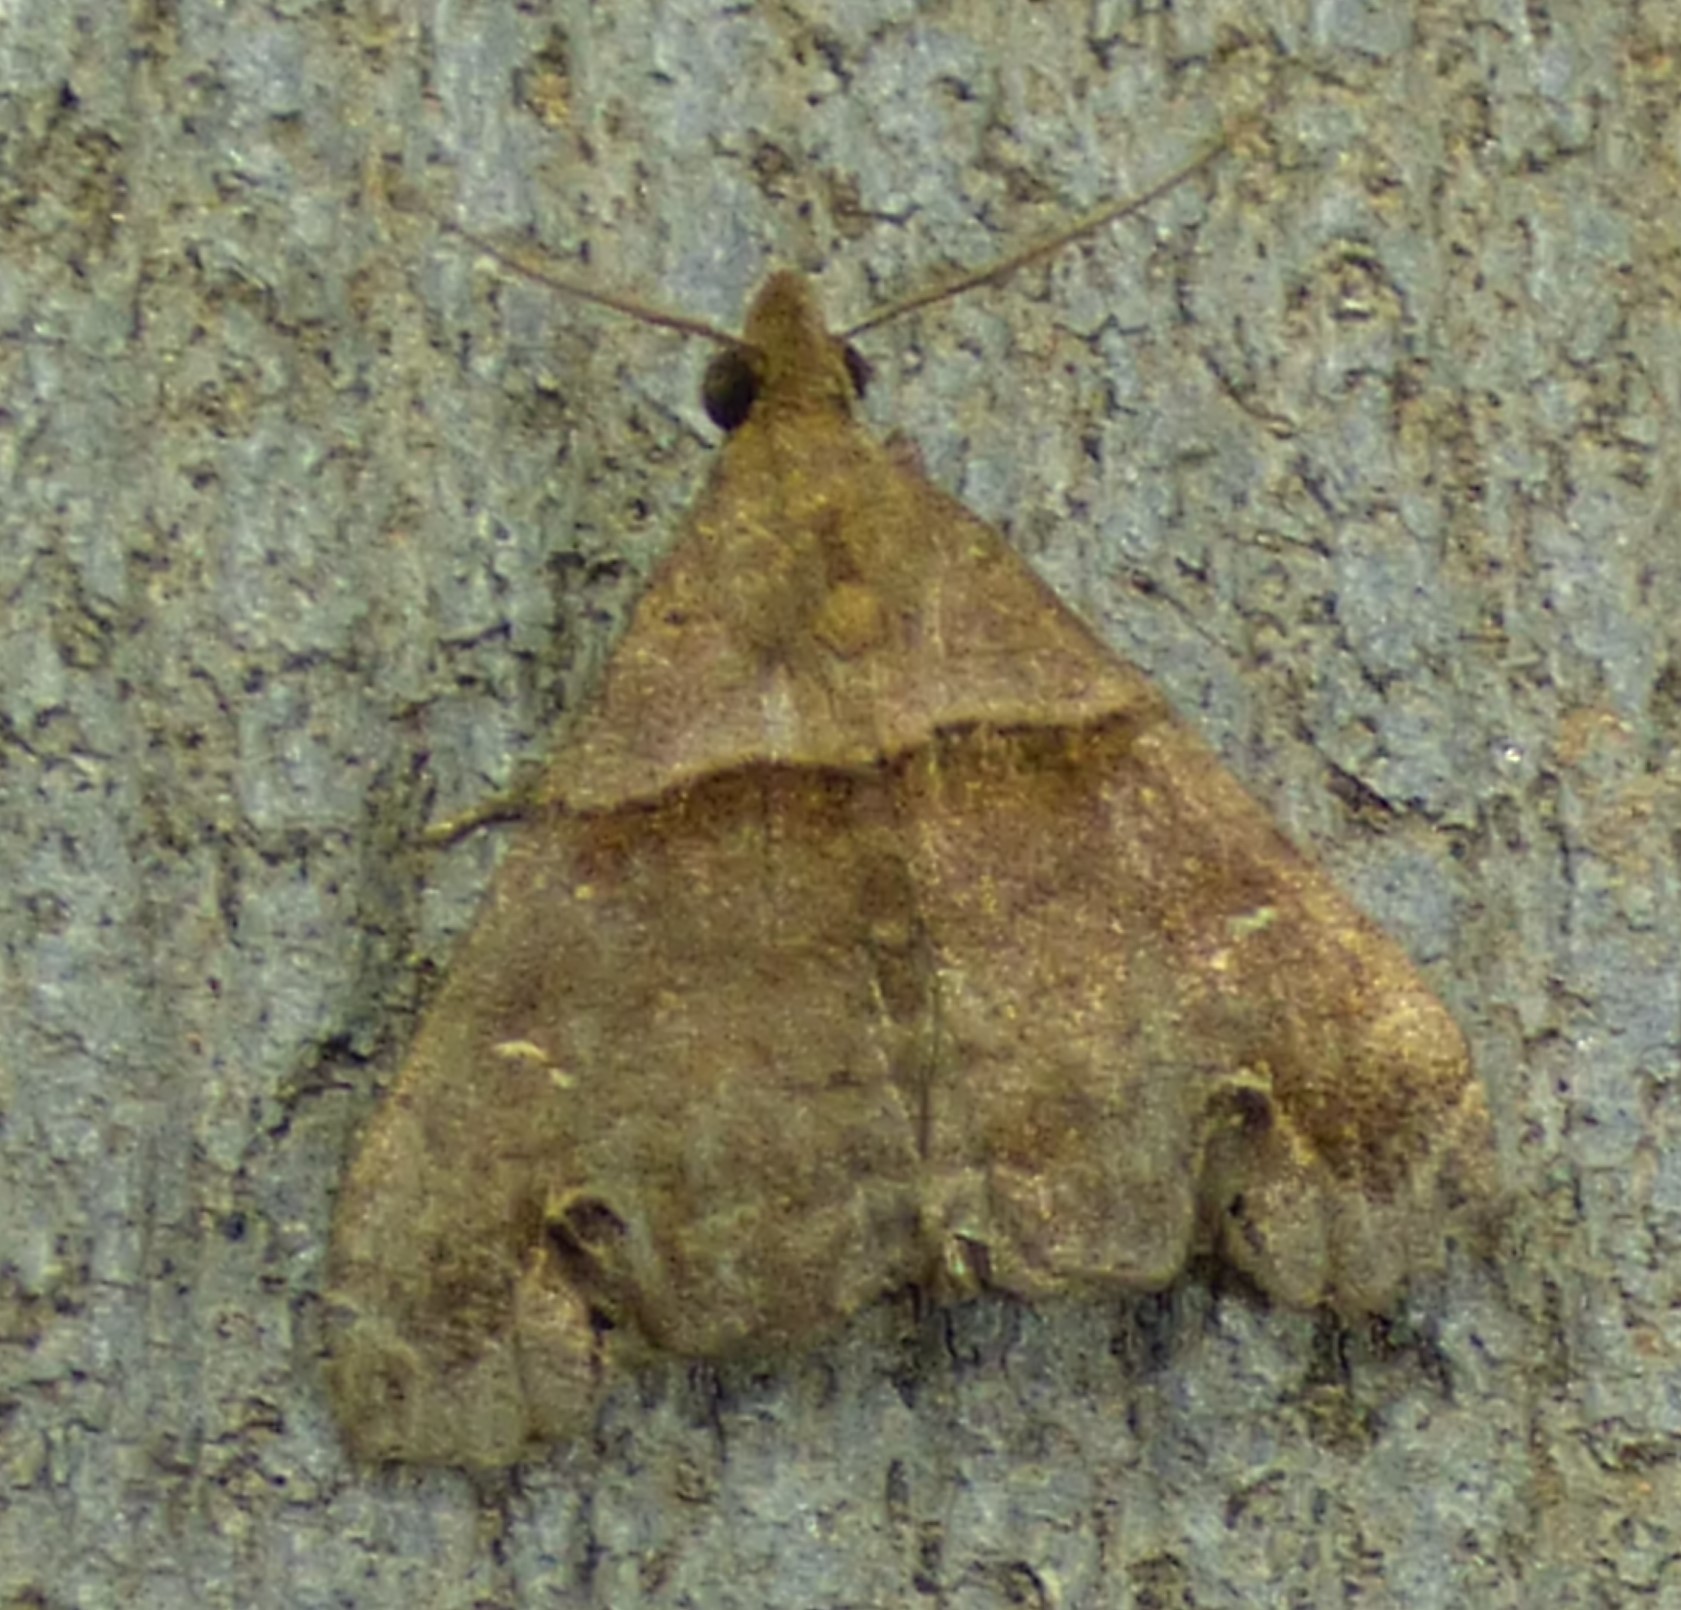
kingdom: Animalia
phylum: Arthropoda
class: Insecta
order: Lepidoptera
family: Erebidae
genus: Lascoria
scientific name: Lascoria ambigualis
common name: Ambiguous moth
